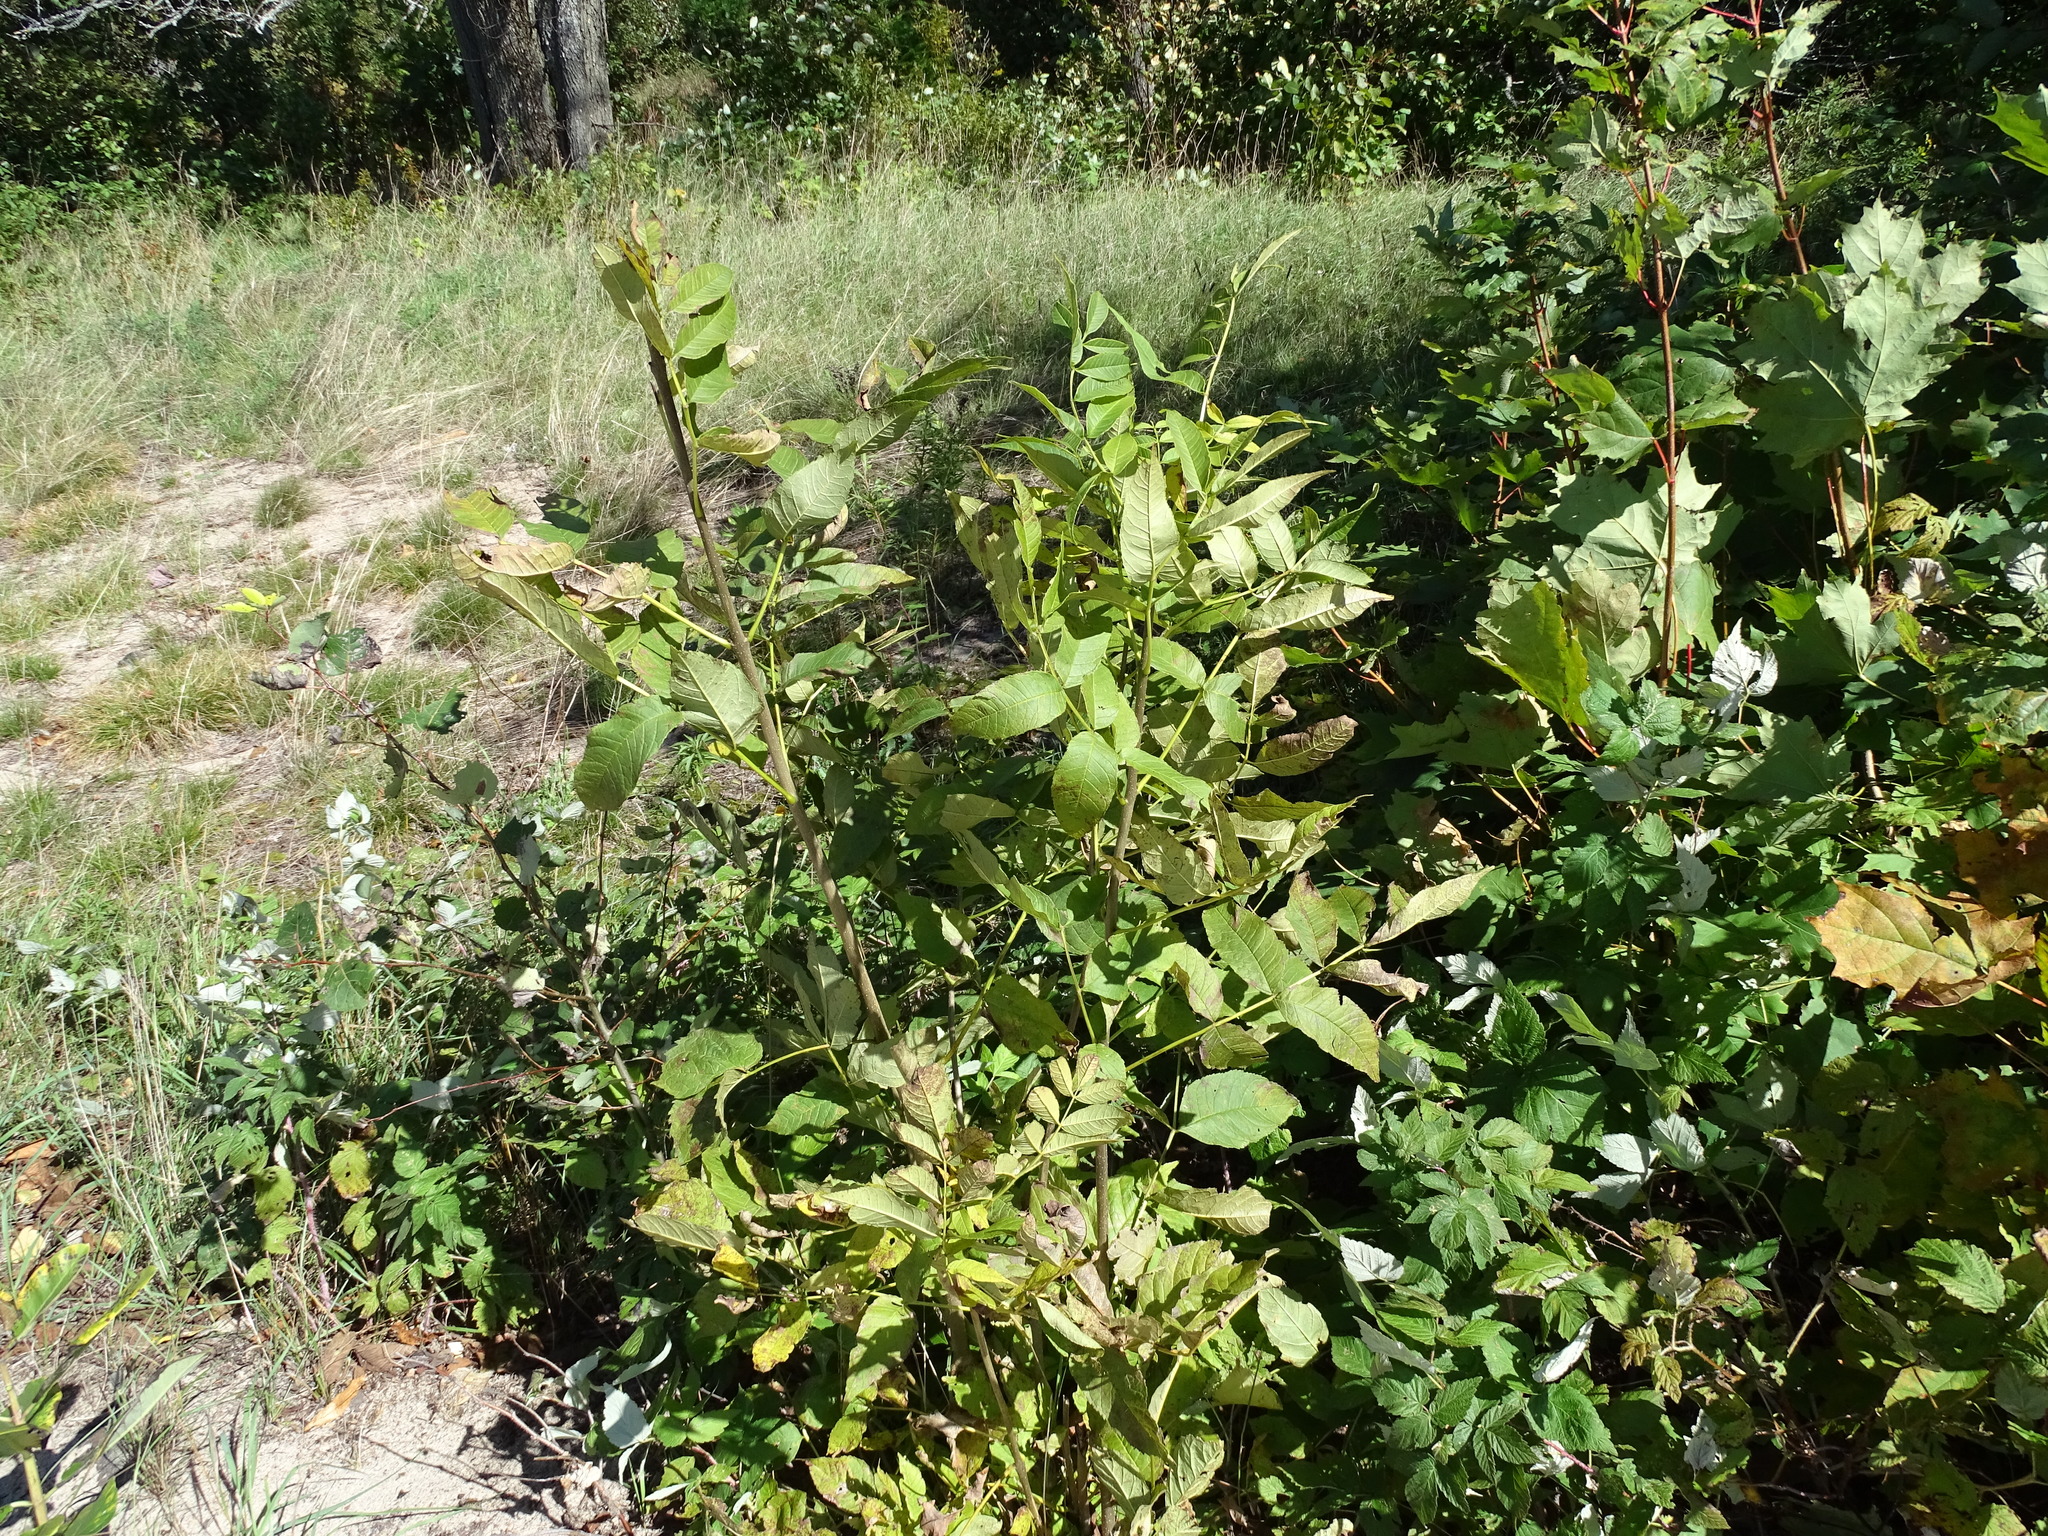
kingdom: Plantae
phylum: Tracheophyta
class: Magnoliopsida
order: Lamiales
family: Oleaceae
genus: Fraxinus
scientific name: Fraxinus nigra
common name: Black ash
